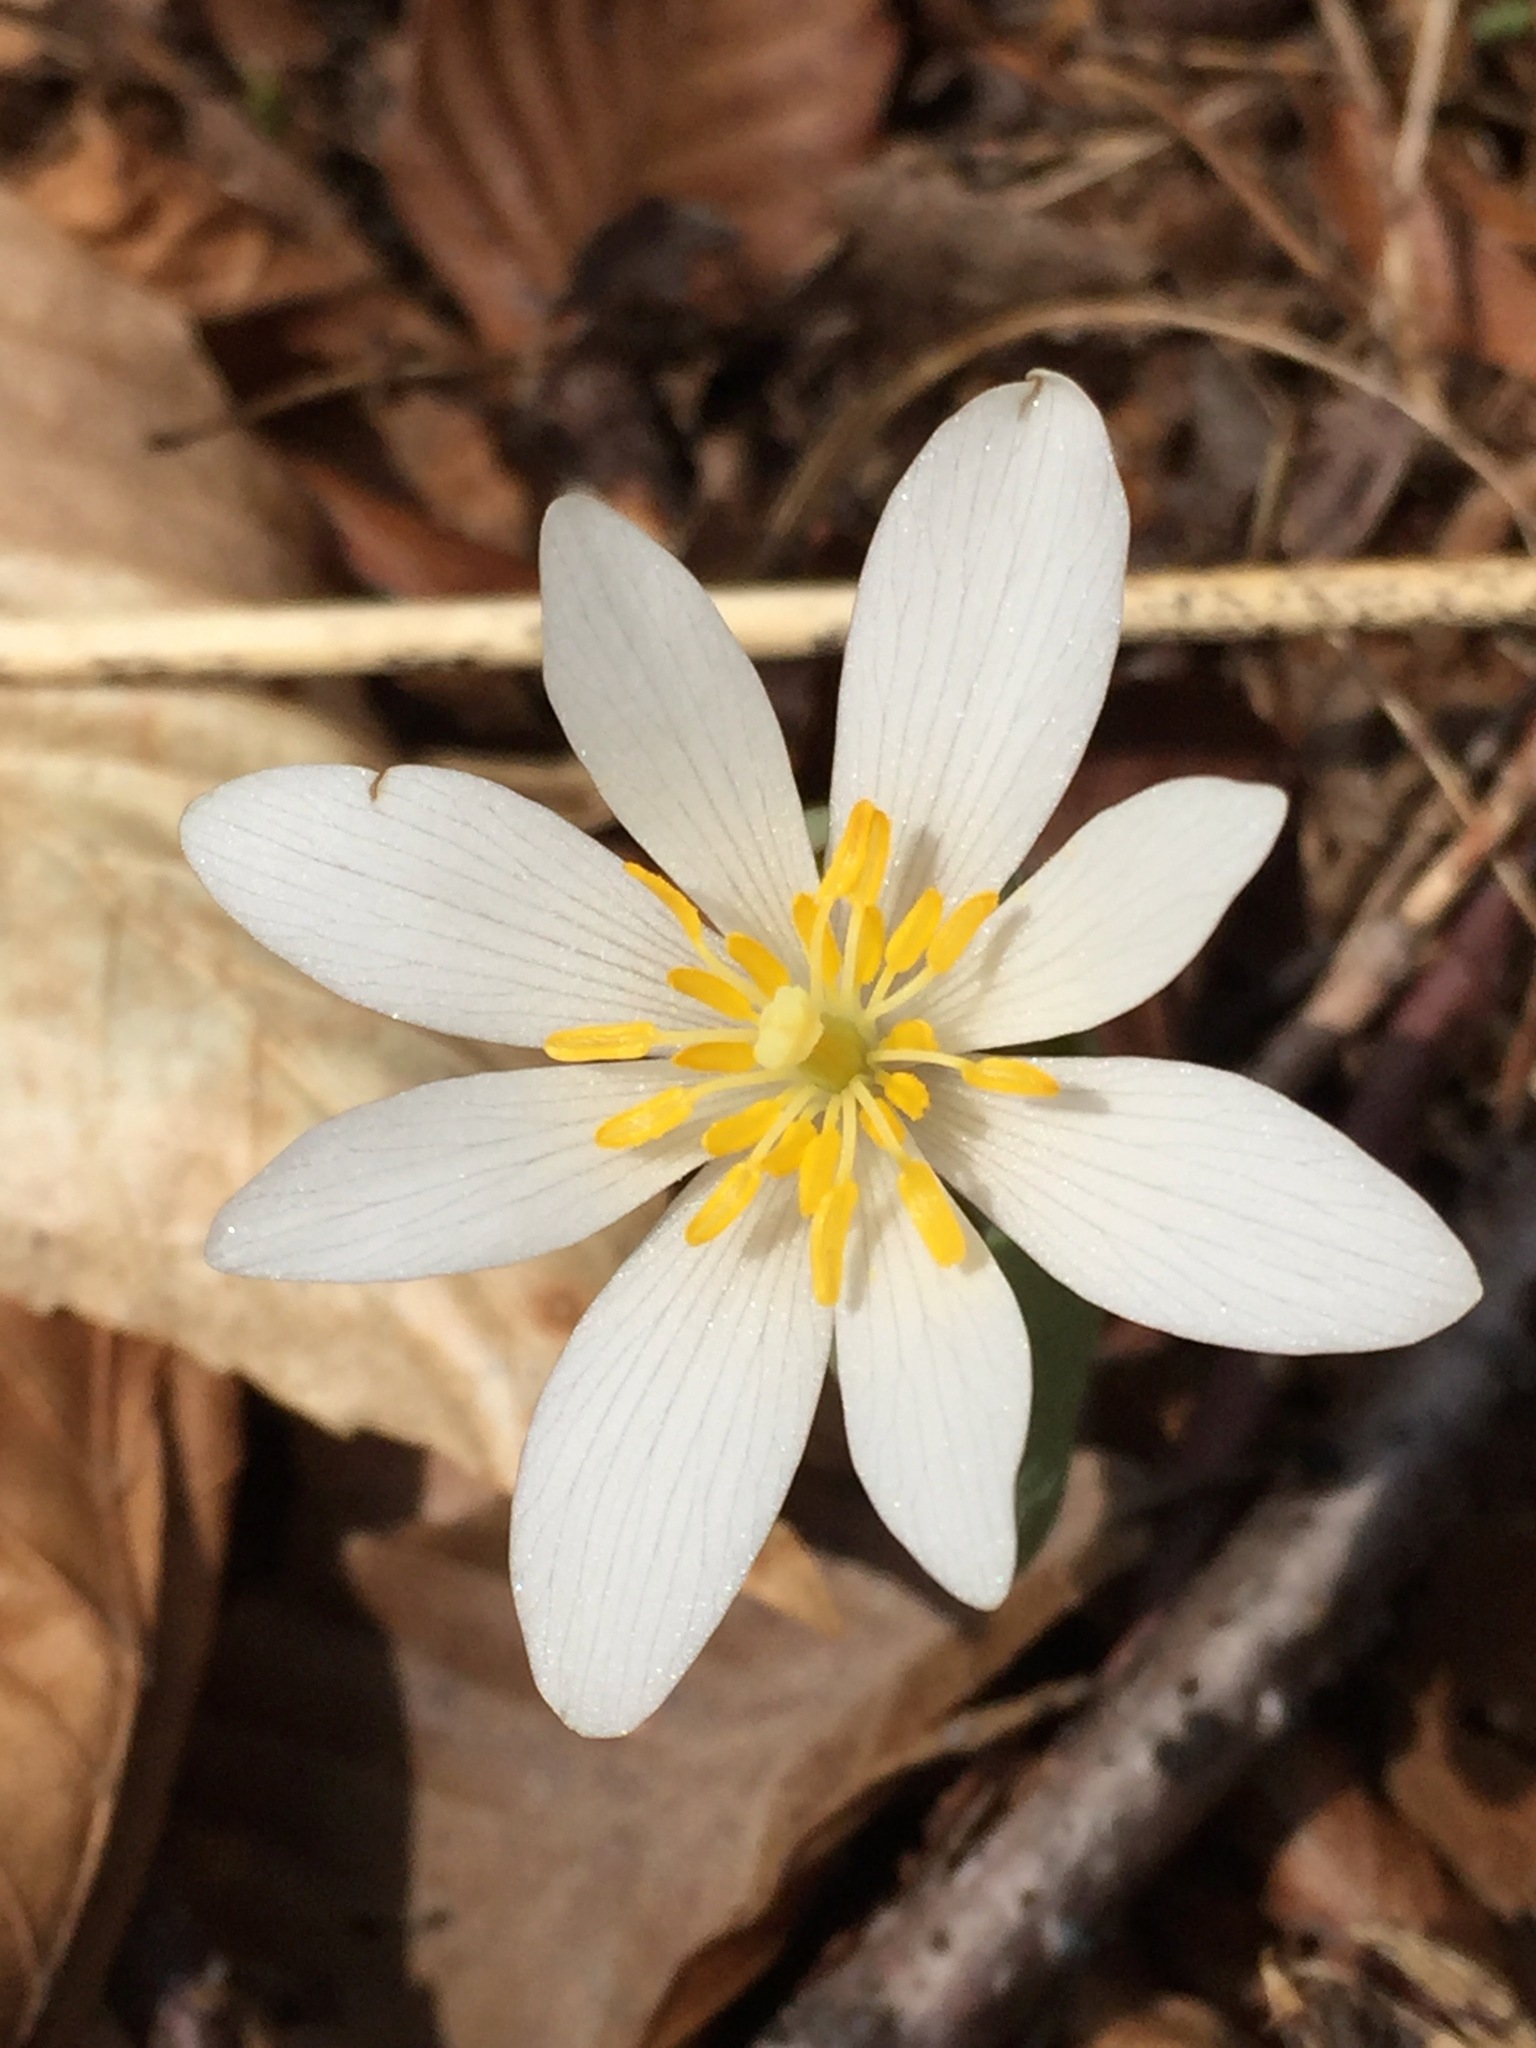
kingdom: Plantae
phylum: Tracheophyta
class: Magnoliopsida
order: Ranunculales
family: Papaveraceae
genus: Sanguinaria
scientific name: Sanguinaria canadensis
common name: Bloodroot
